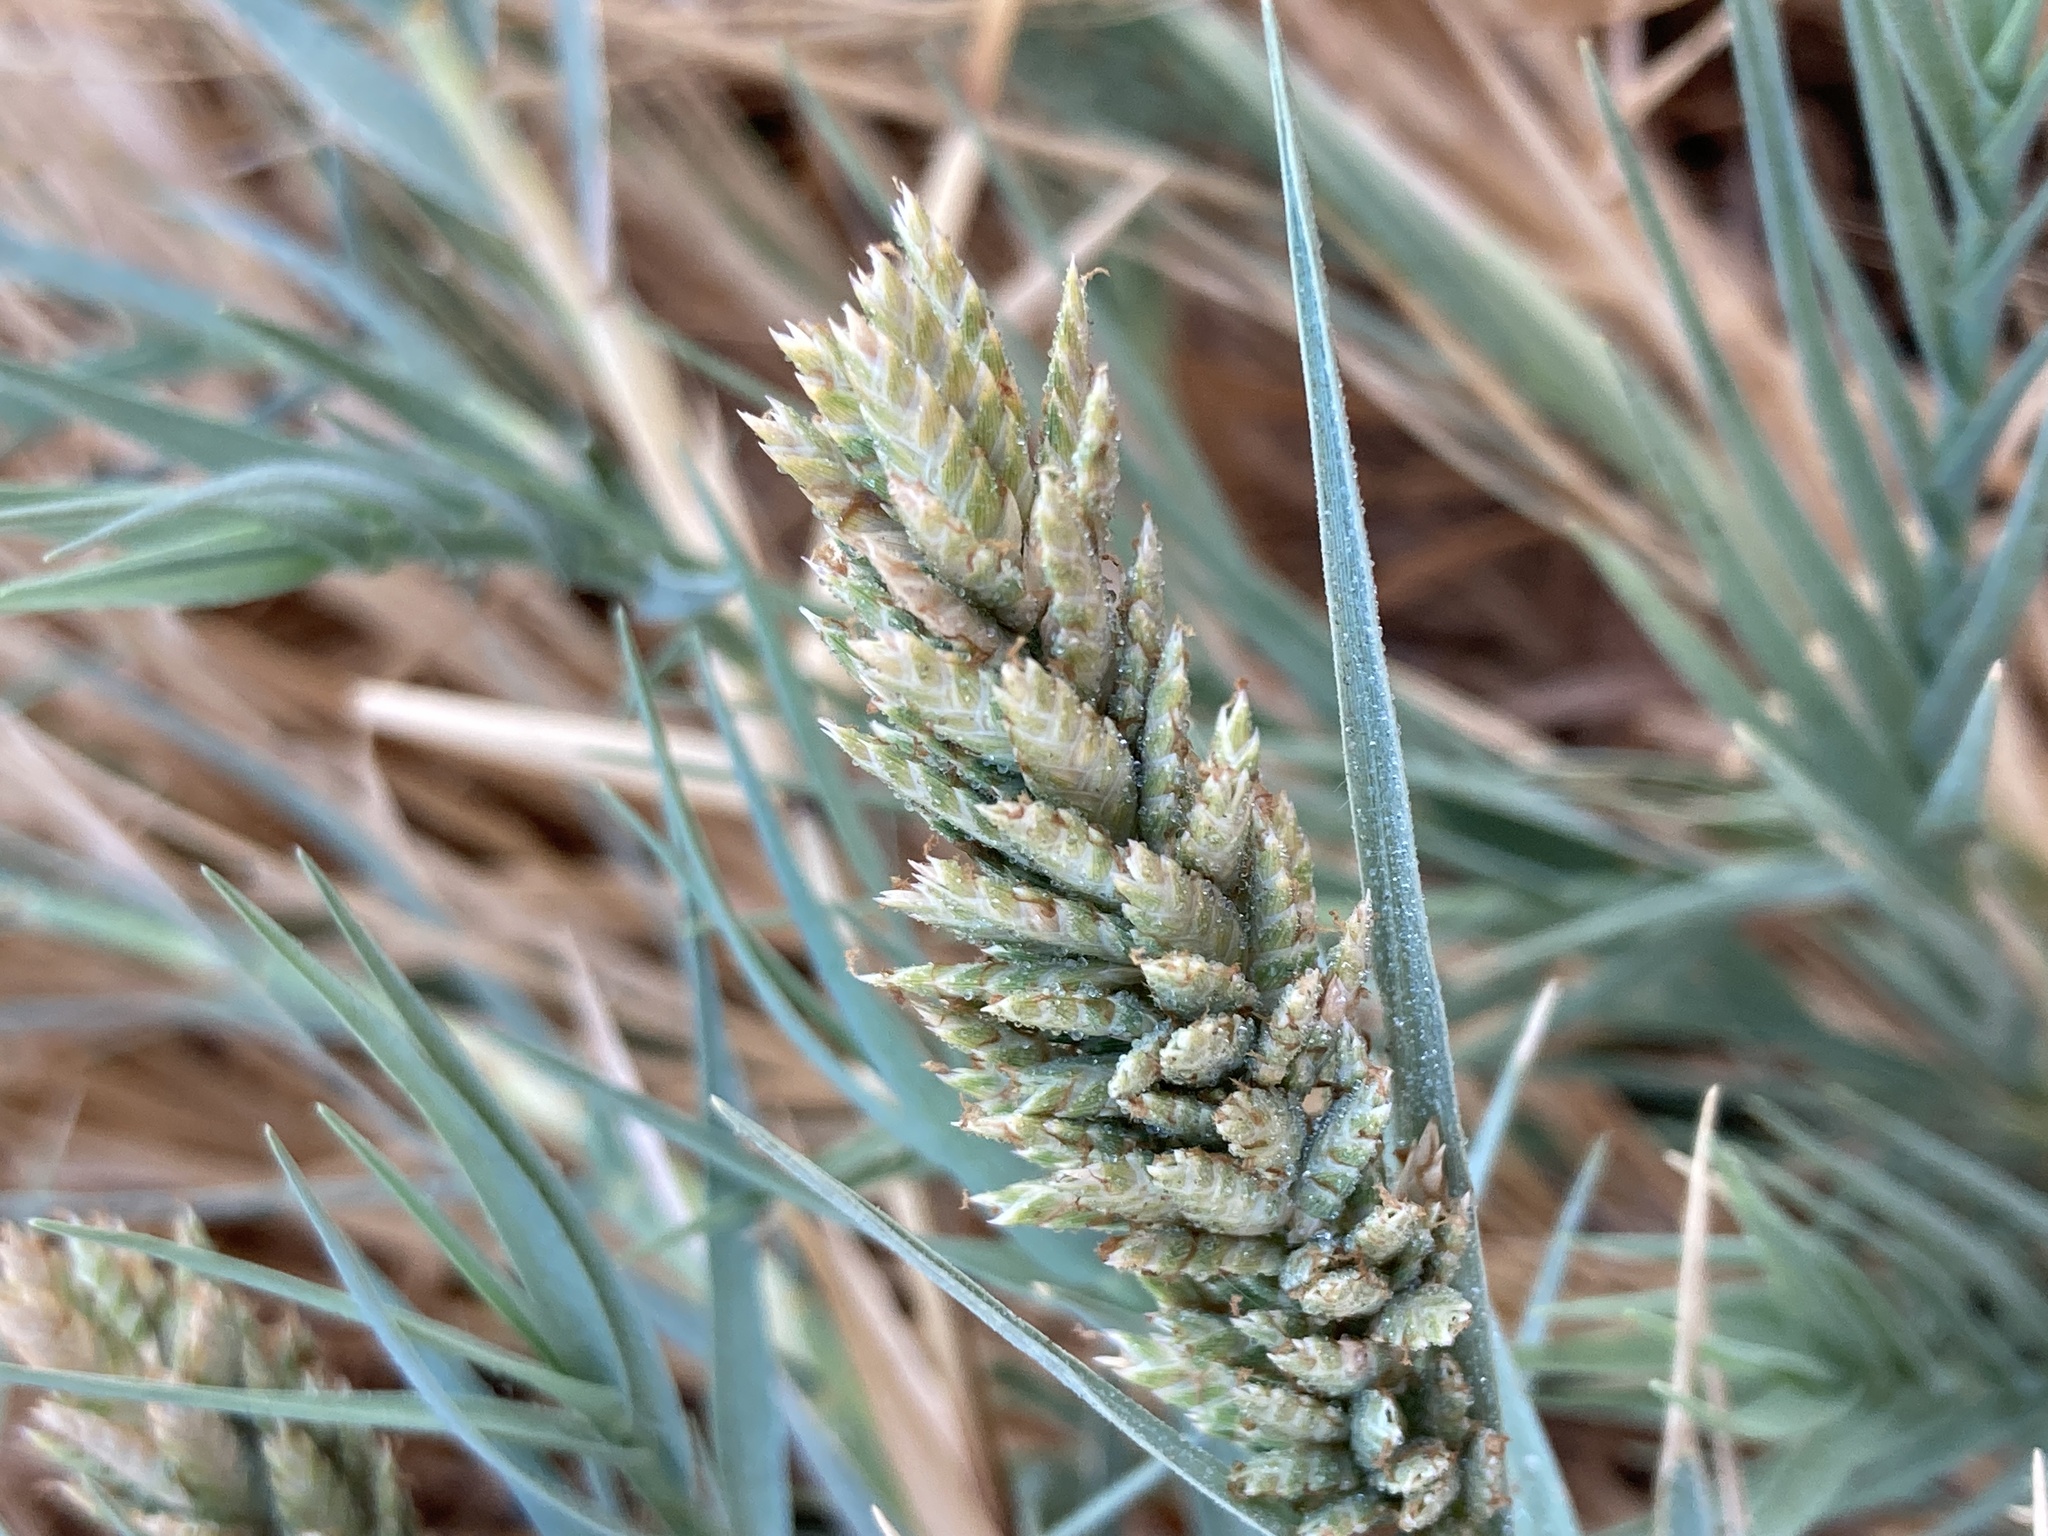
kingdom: Plantae
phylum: Tracheophyta
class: Liliopsida
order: Poales
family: Poaceae
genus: Distichlis
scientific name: Distichlis spicata
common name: Saltgrass
